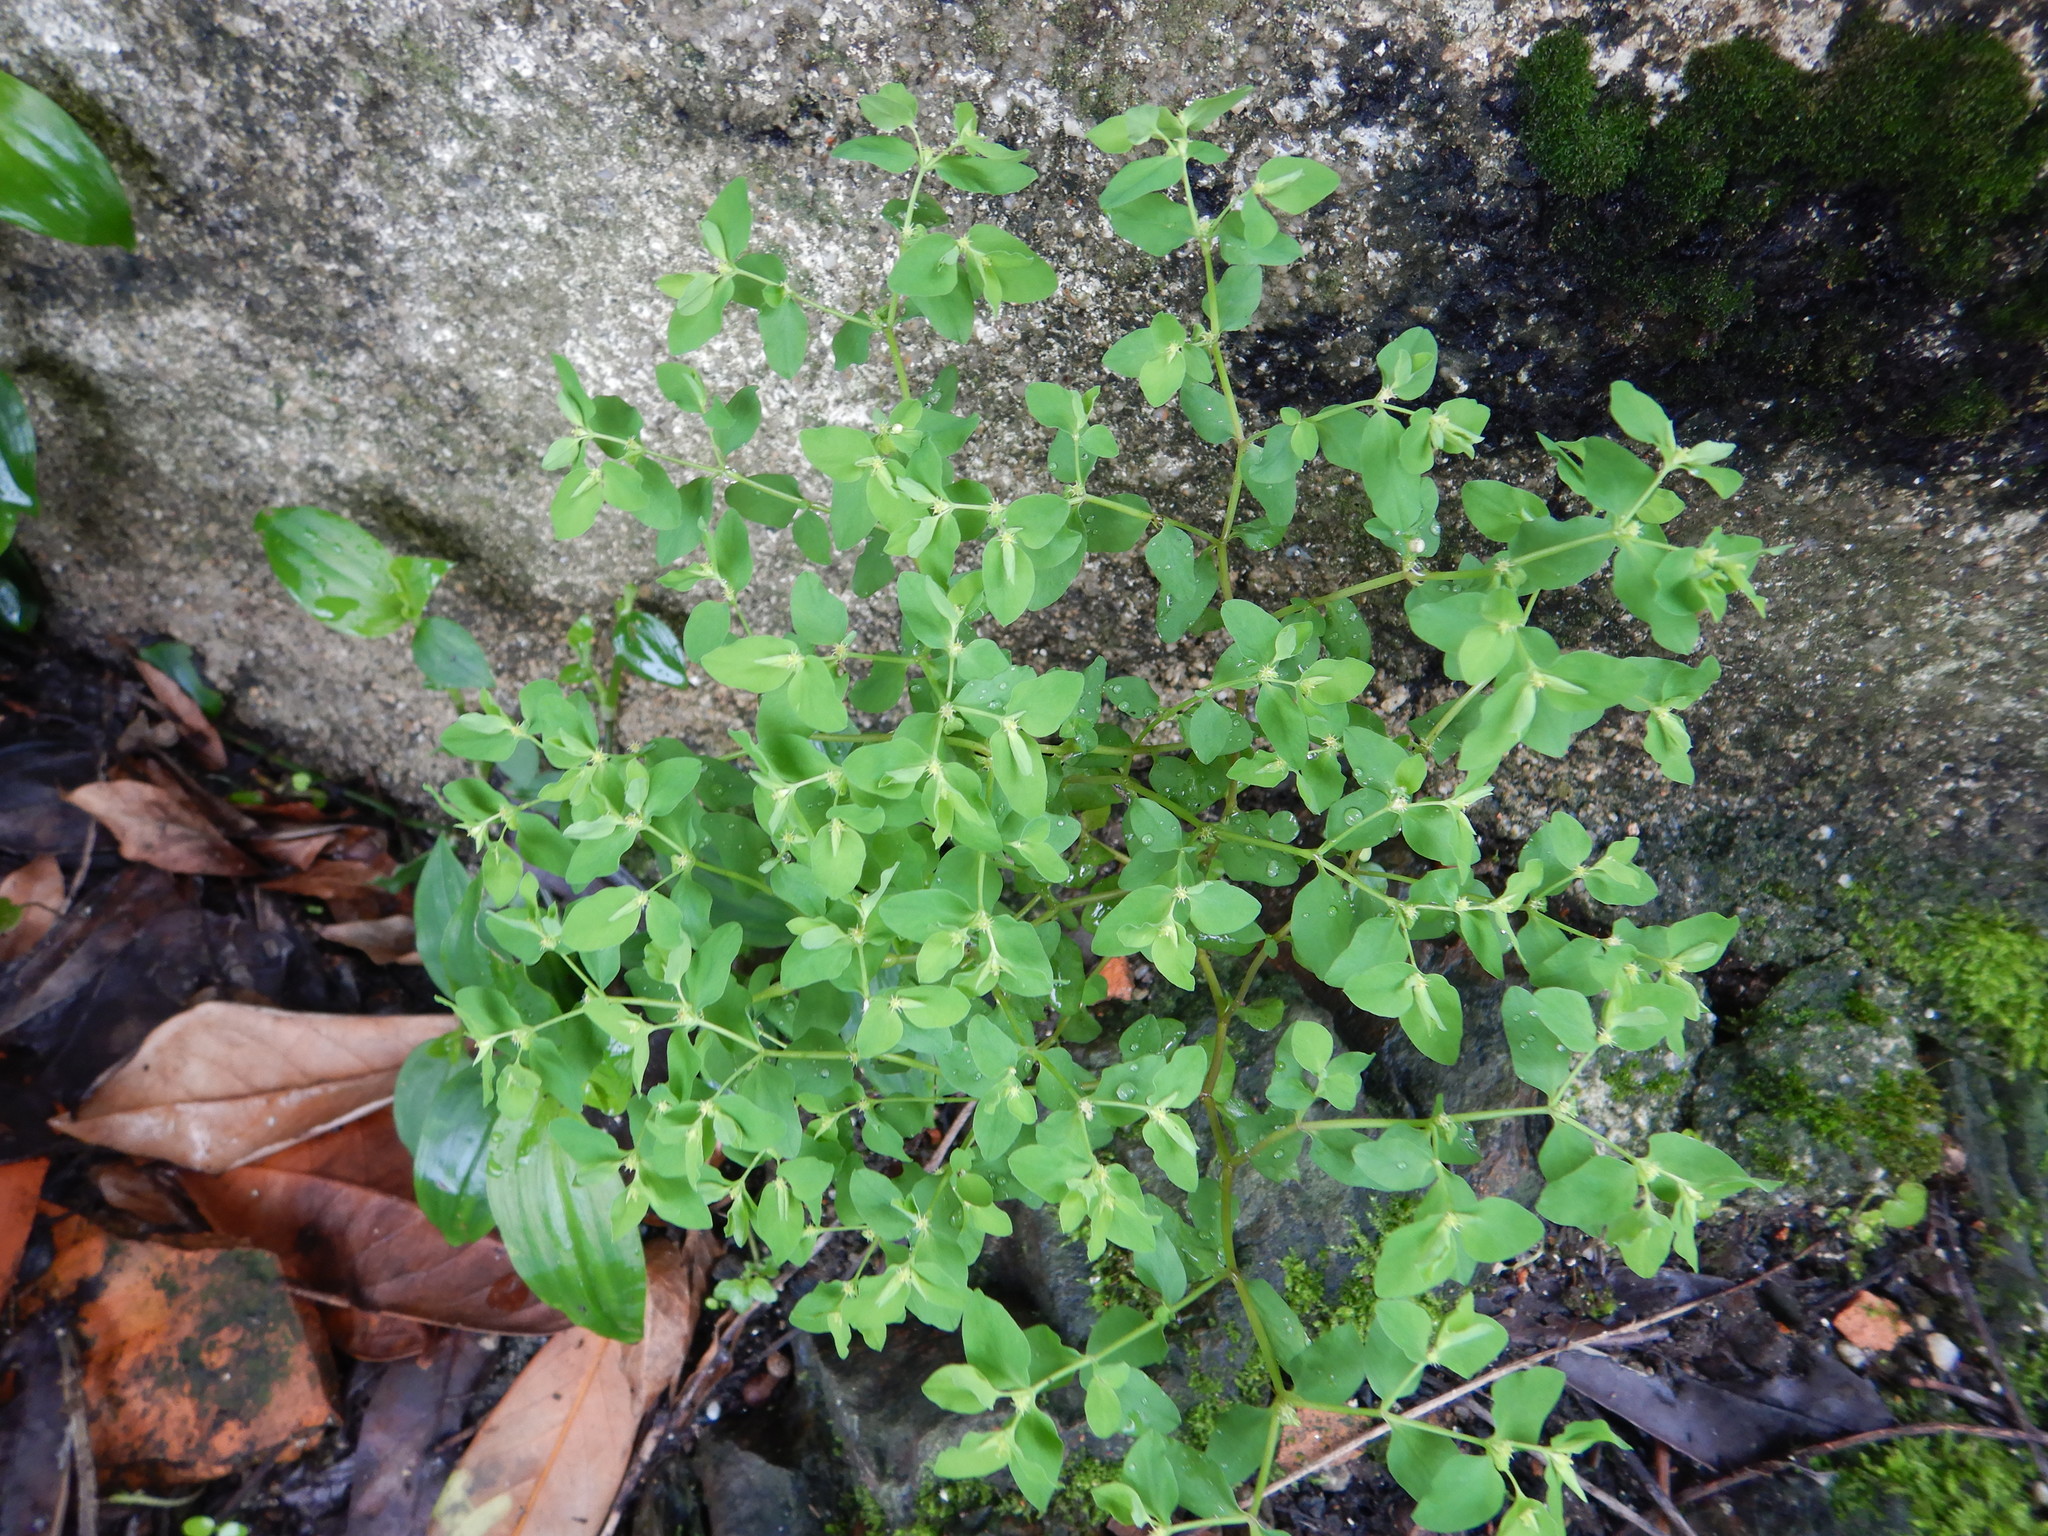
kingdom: Plantae
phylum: Tracheophyta
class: Magnoliopsida
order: Malpighiales
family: Euphorbiaceae
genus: Euphorbia
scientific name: Euphorbia peplus
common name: Petty spurge
